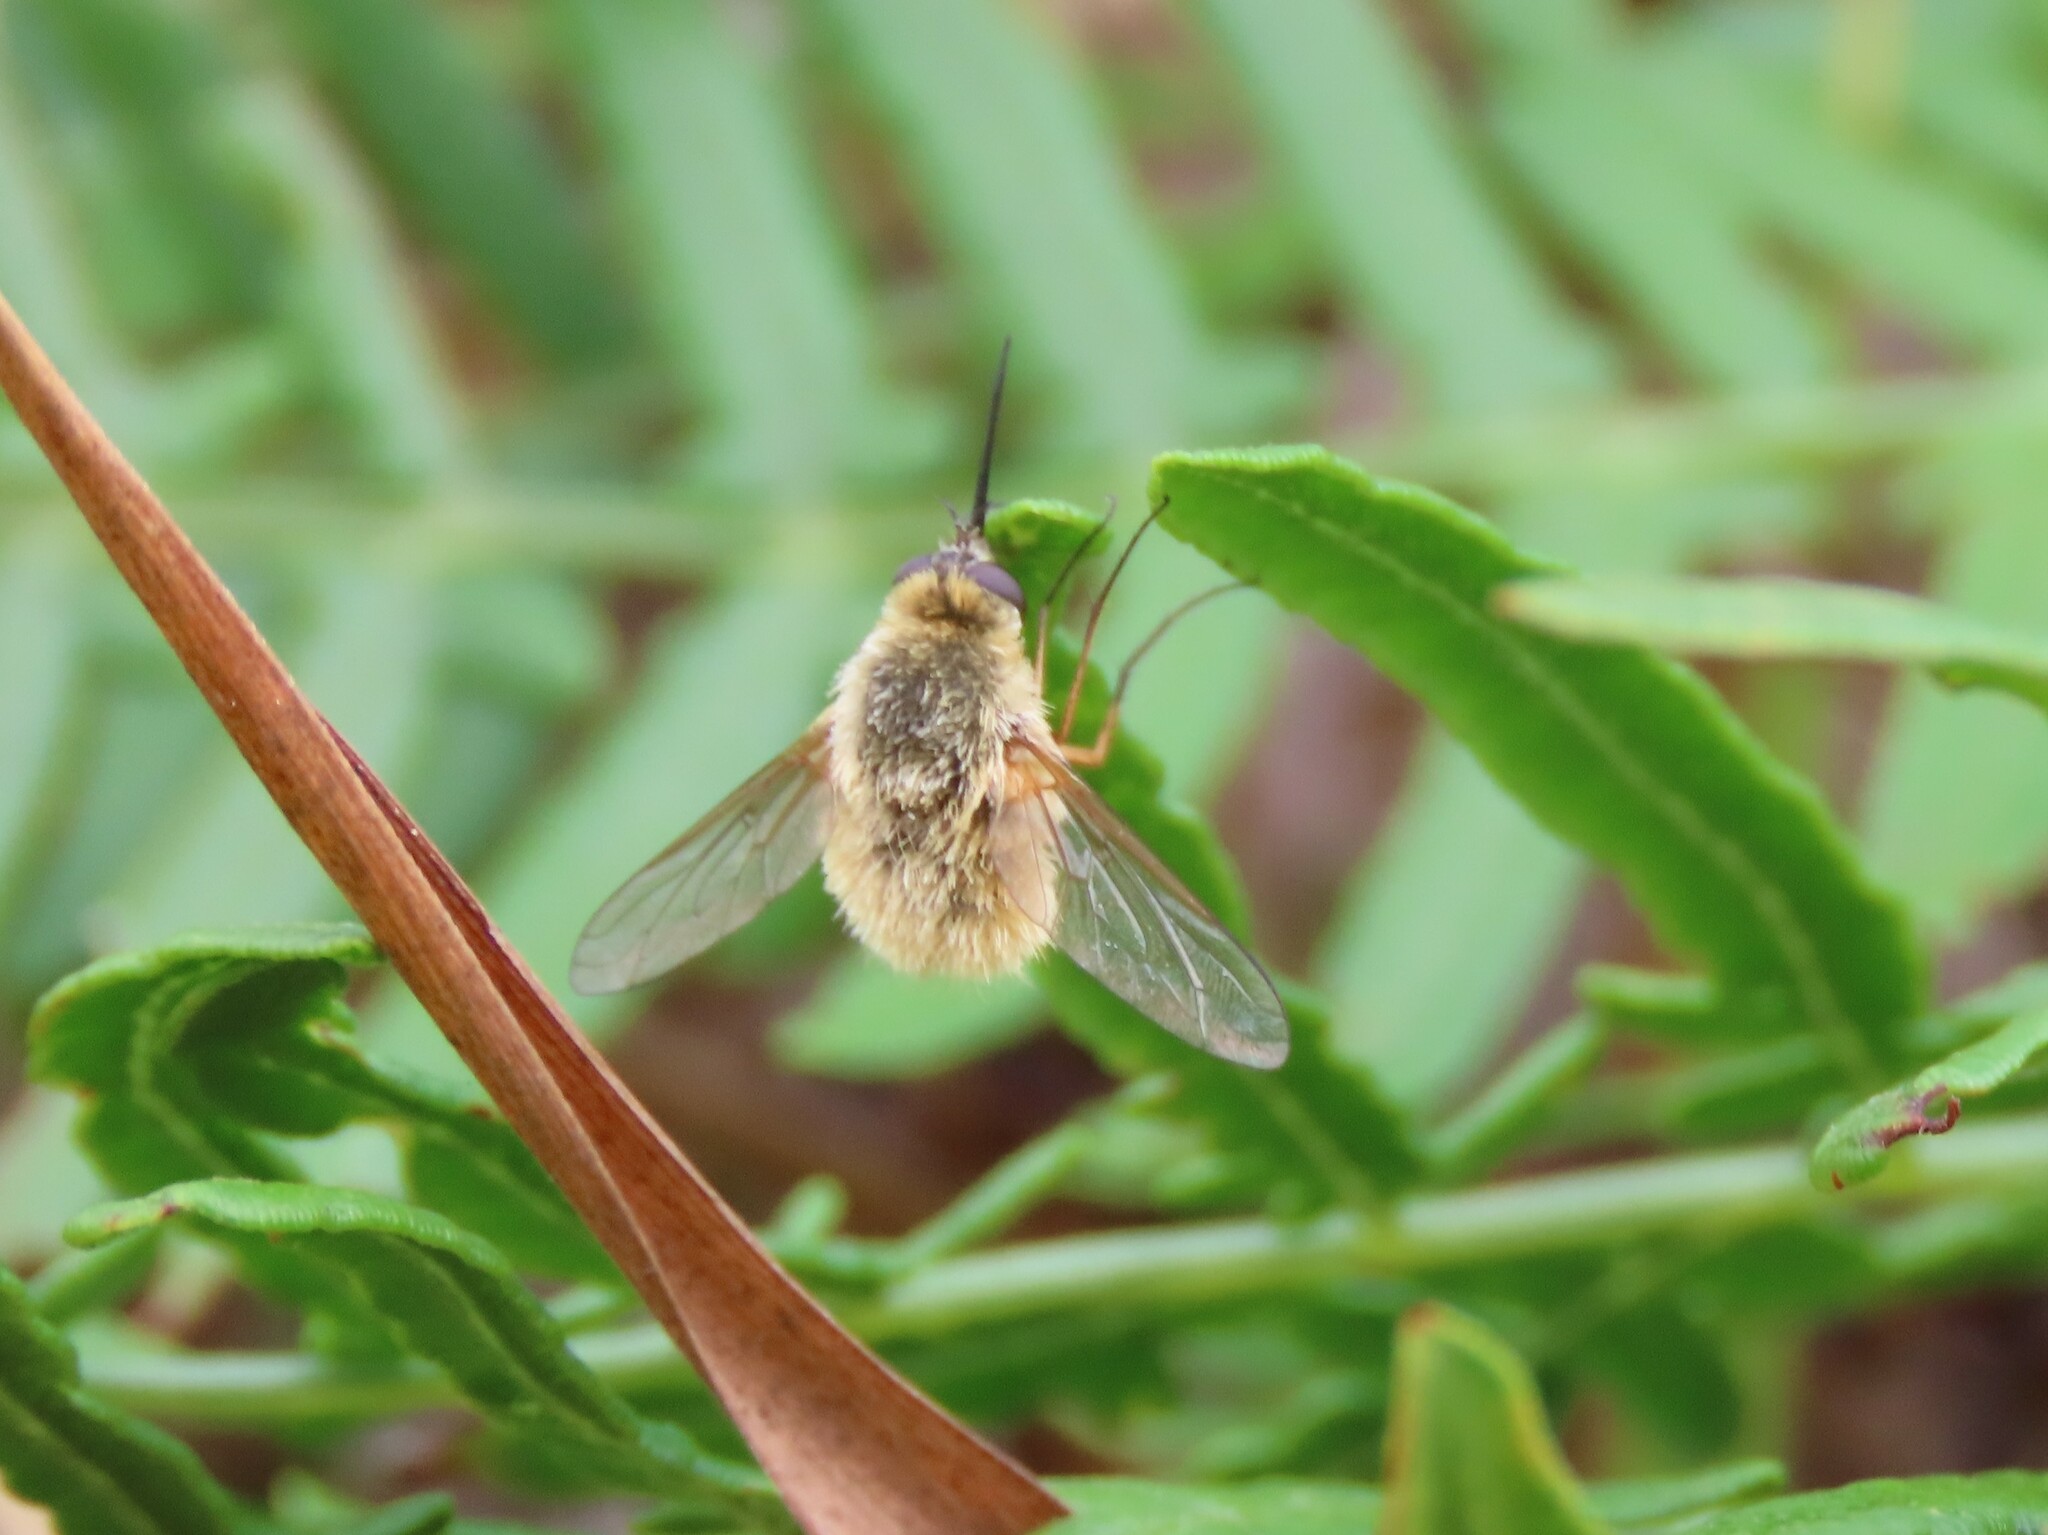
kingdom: Animalia
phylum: Arthropoda
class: Insecta
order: Diptera
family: Bombyliidae
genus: Systoechus
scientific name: Systoechus solitus
